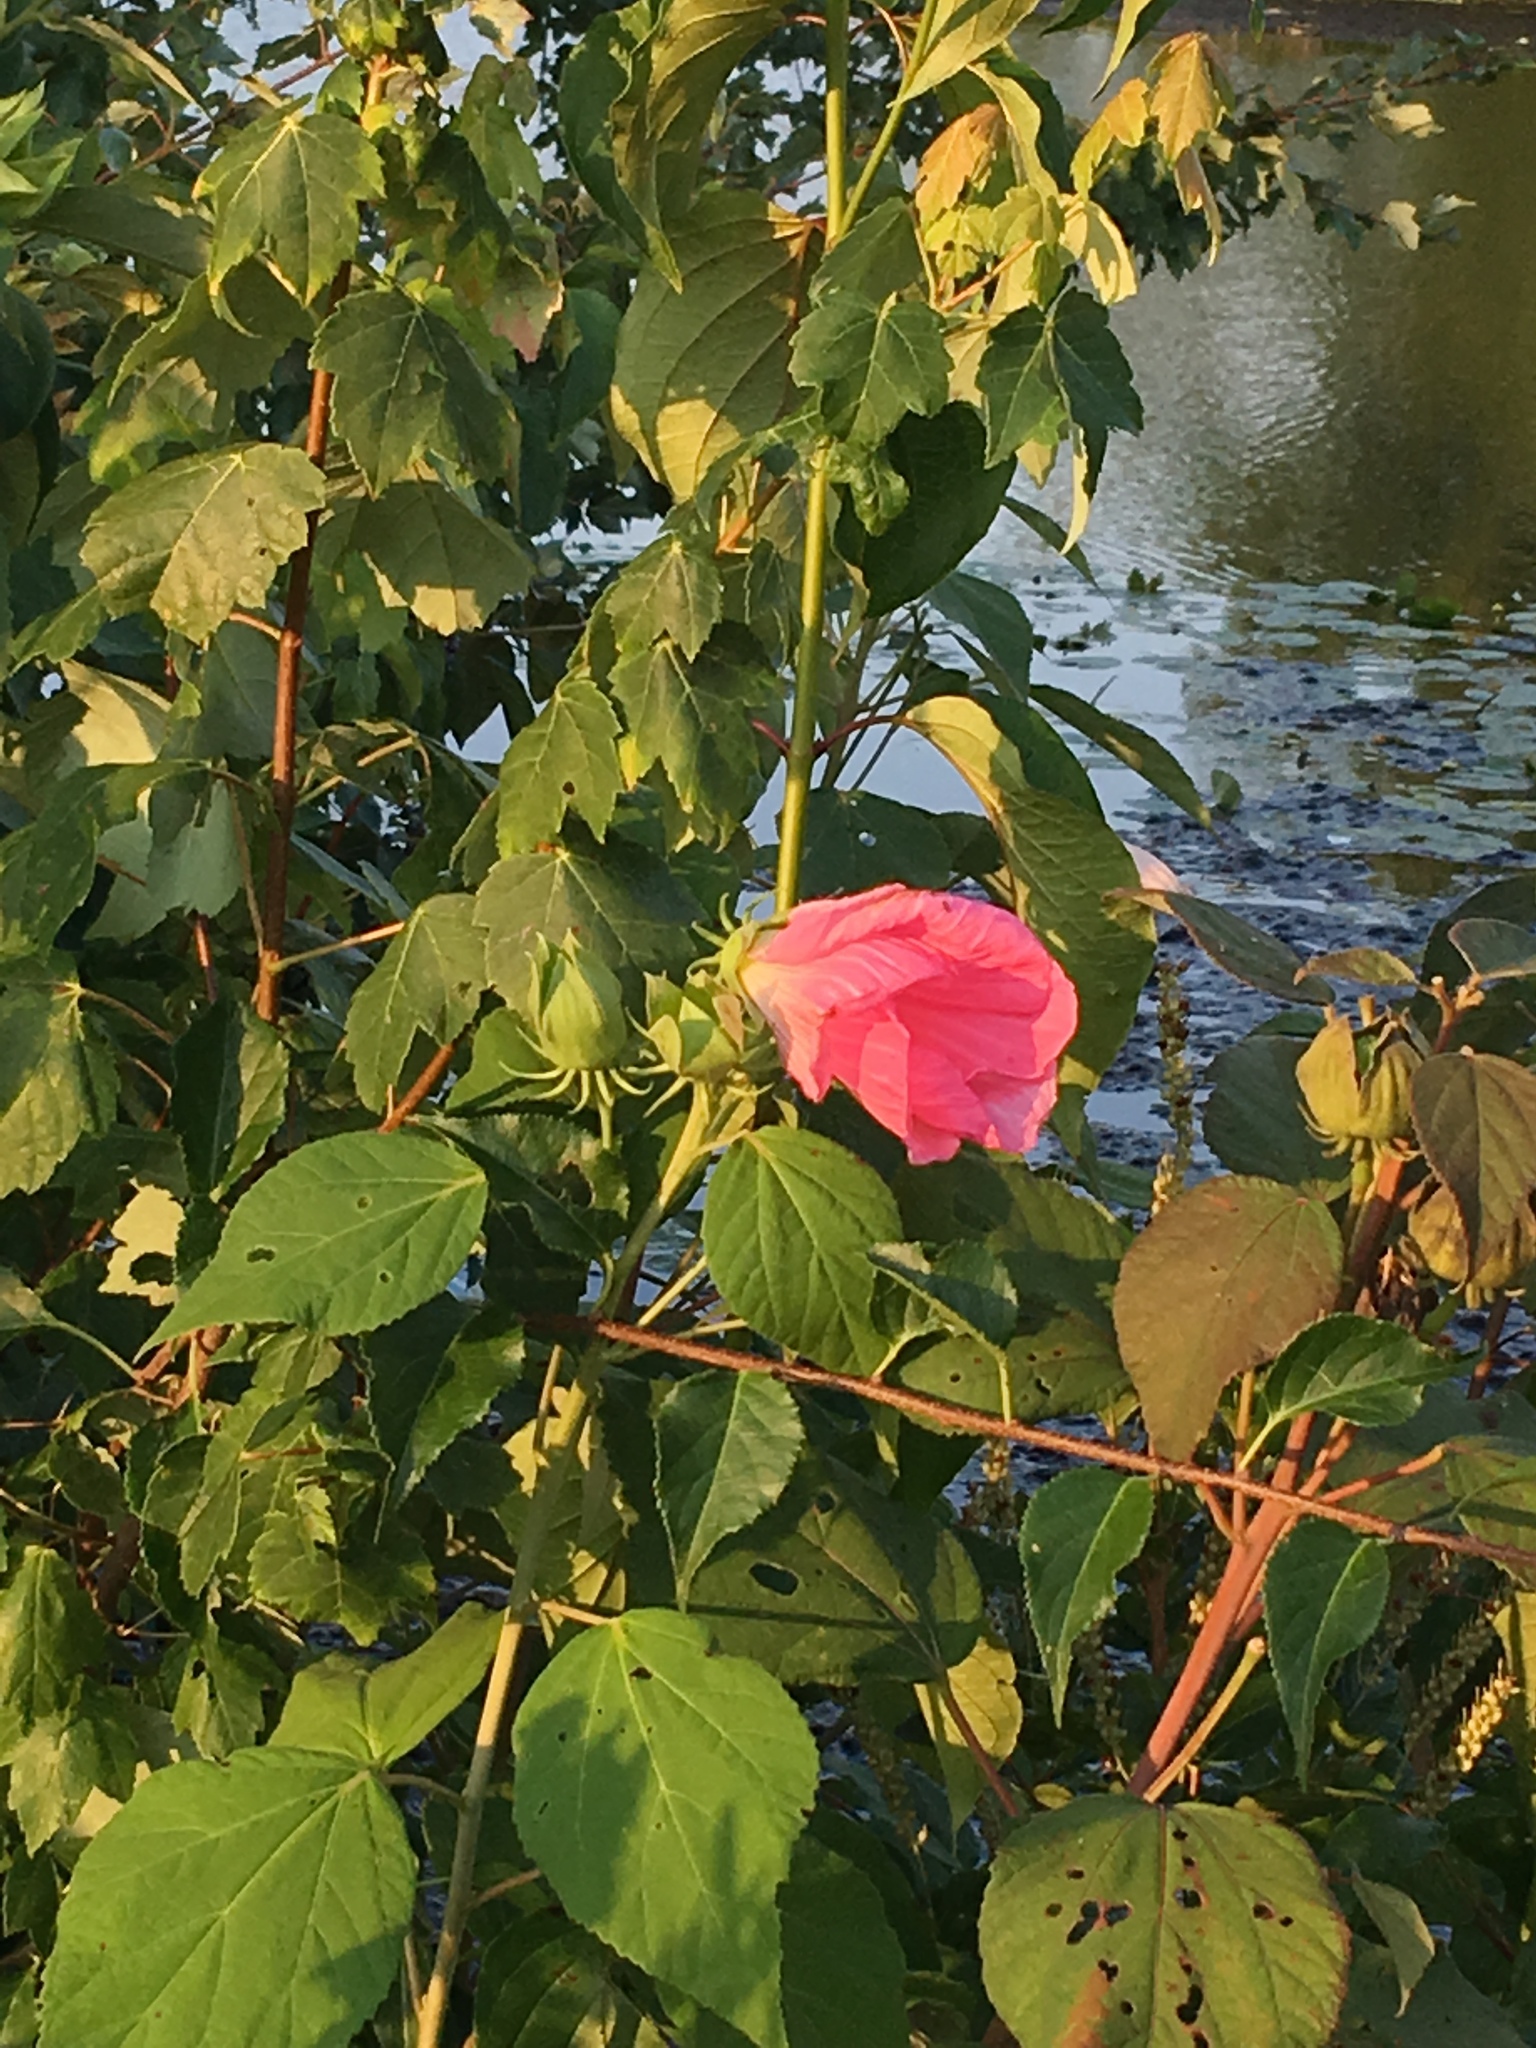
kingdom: Plantae
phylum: Tracheophyta
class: Magnoliopsida
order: Malvales
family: Malvaceae
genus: Hibiscus
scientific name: Hibiscus moscheutos
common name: Common rose-mallow
